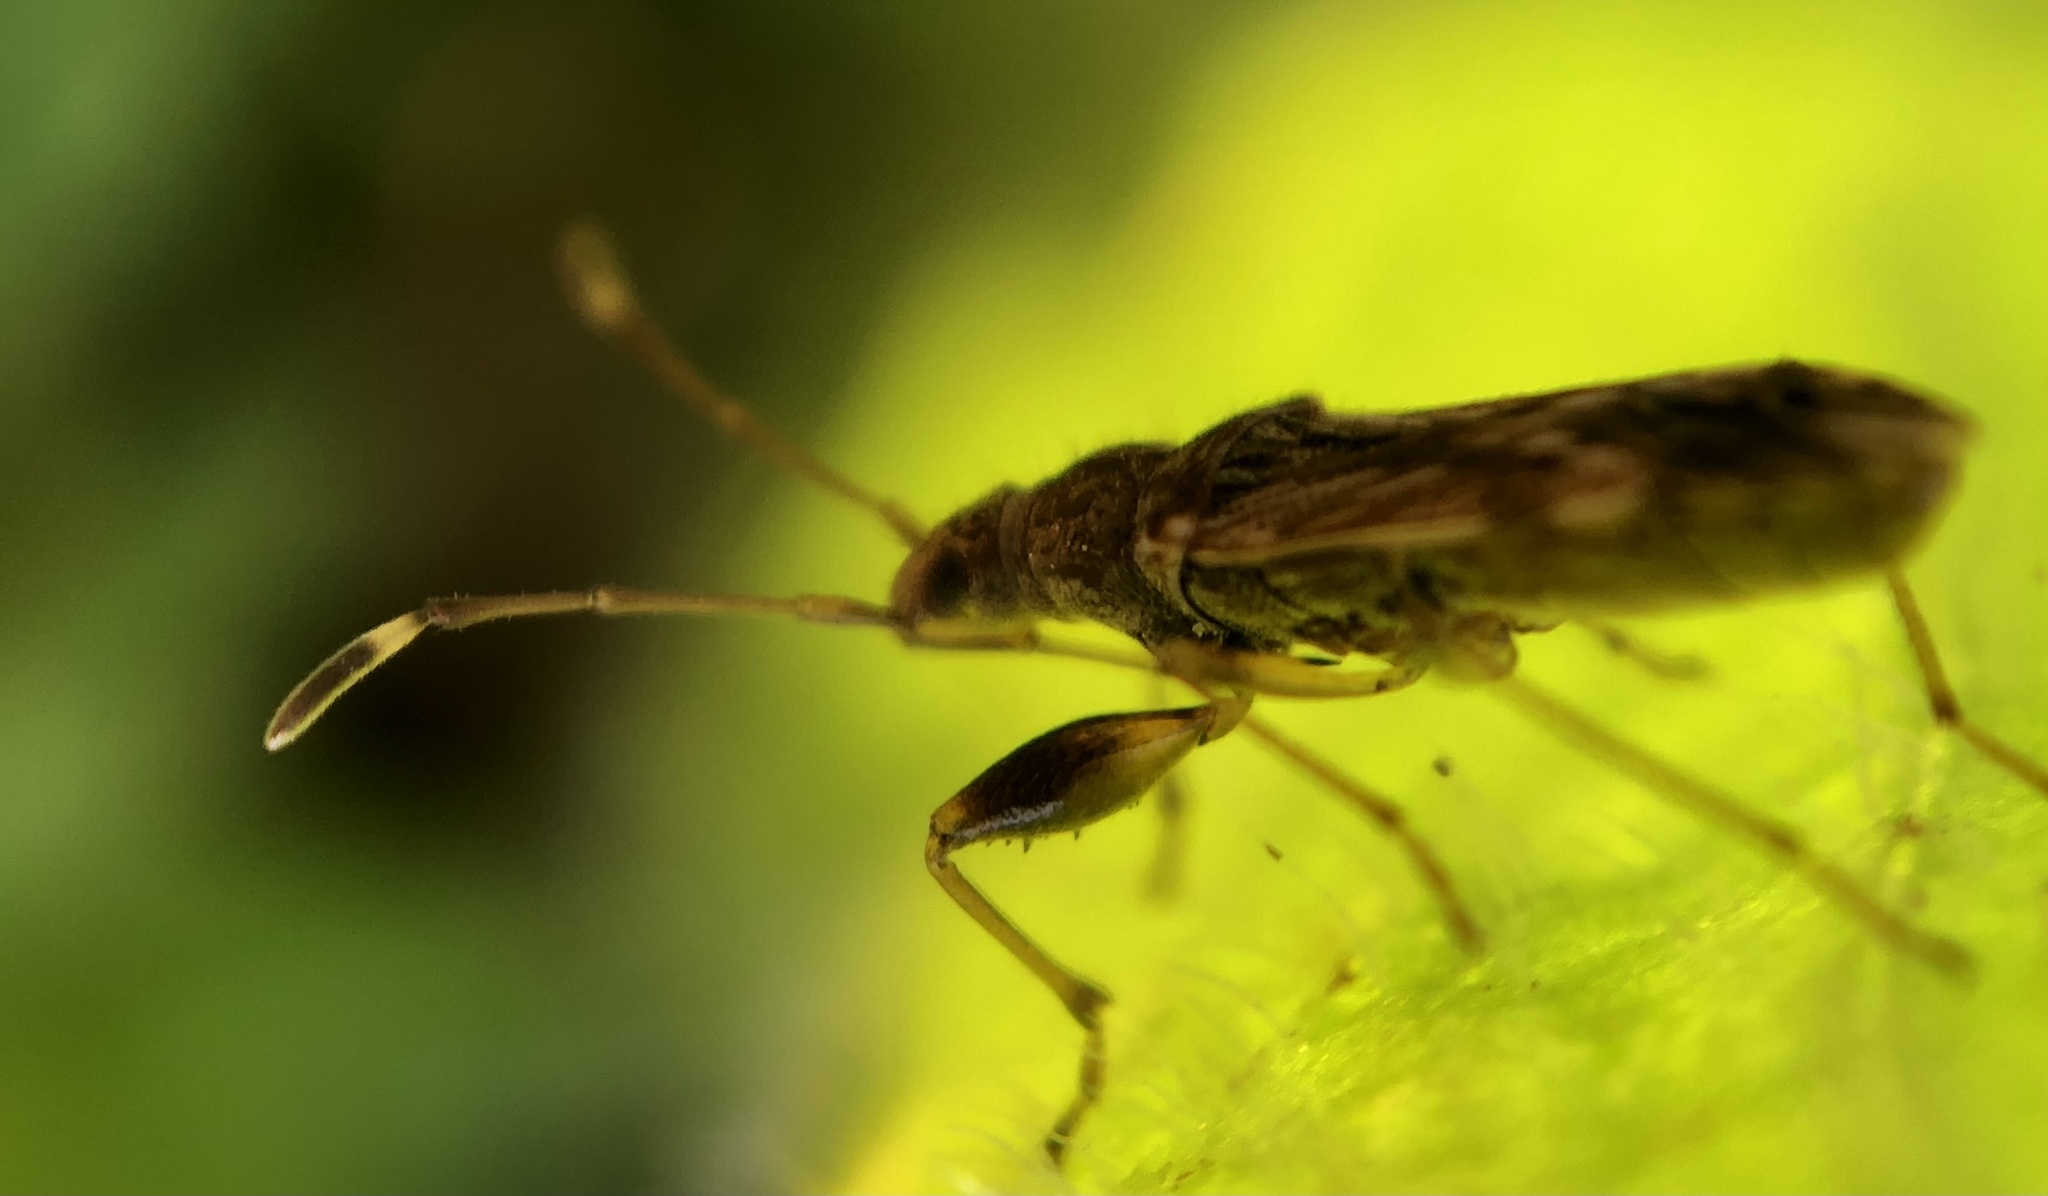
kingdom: Animalia
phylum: Arthropoda
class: Insecta
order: Hemiptera
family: Rhyparochromidae
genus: Neopamera
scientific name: Neopamera albocincta
